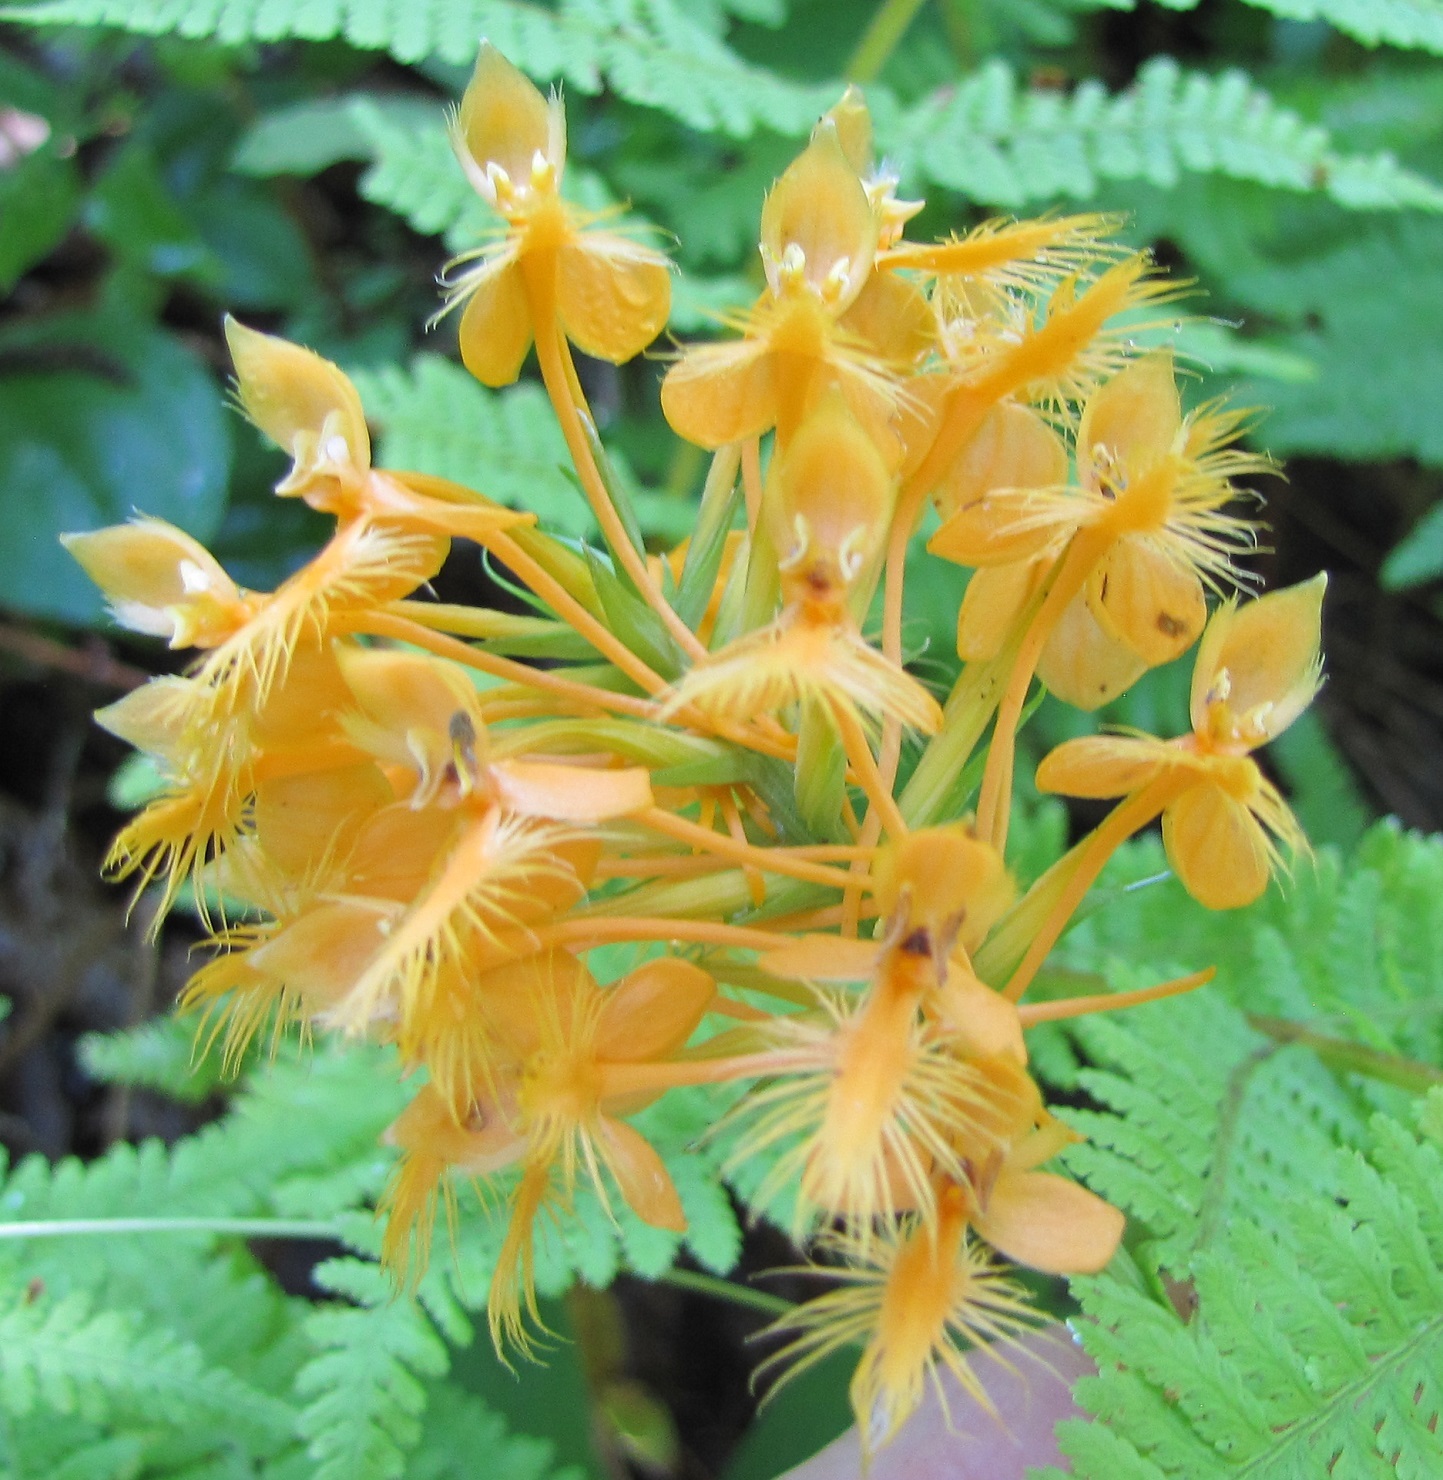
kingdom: Plantae
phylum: Tracheophyta
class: Liliopsida
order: Asparagales
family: Orchidaceae
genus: Platanthera
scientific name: Platanthera ciliaris
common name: Yellow fringed orchid
